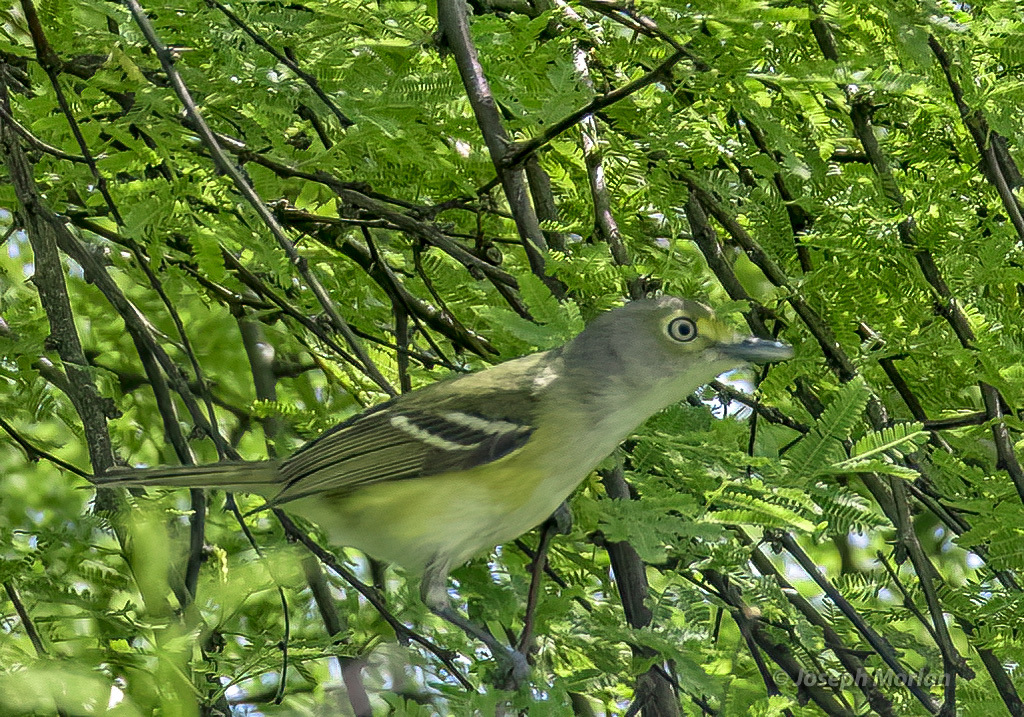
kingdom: Animalia
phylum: Chordata
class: Aves
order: Passeriformes
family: Vireonidae
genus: Vireo
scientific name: Vireo griseus
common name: White-eyed vireo
